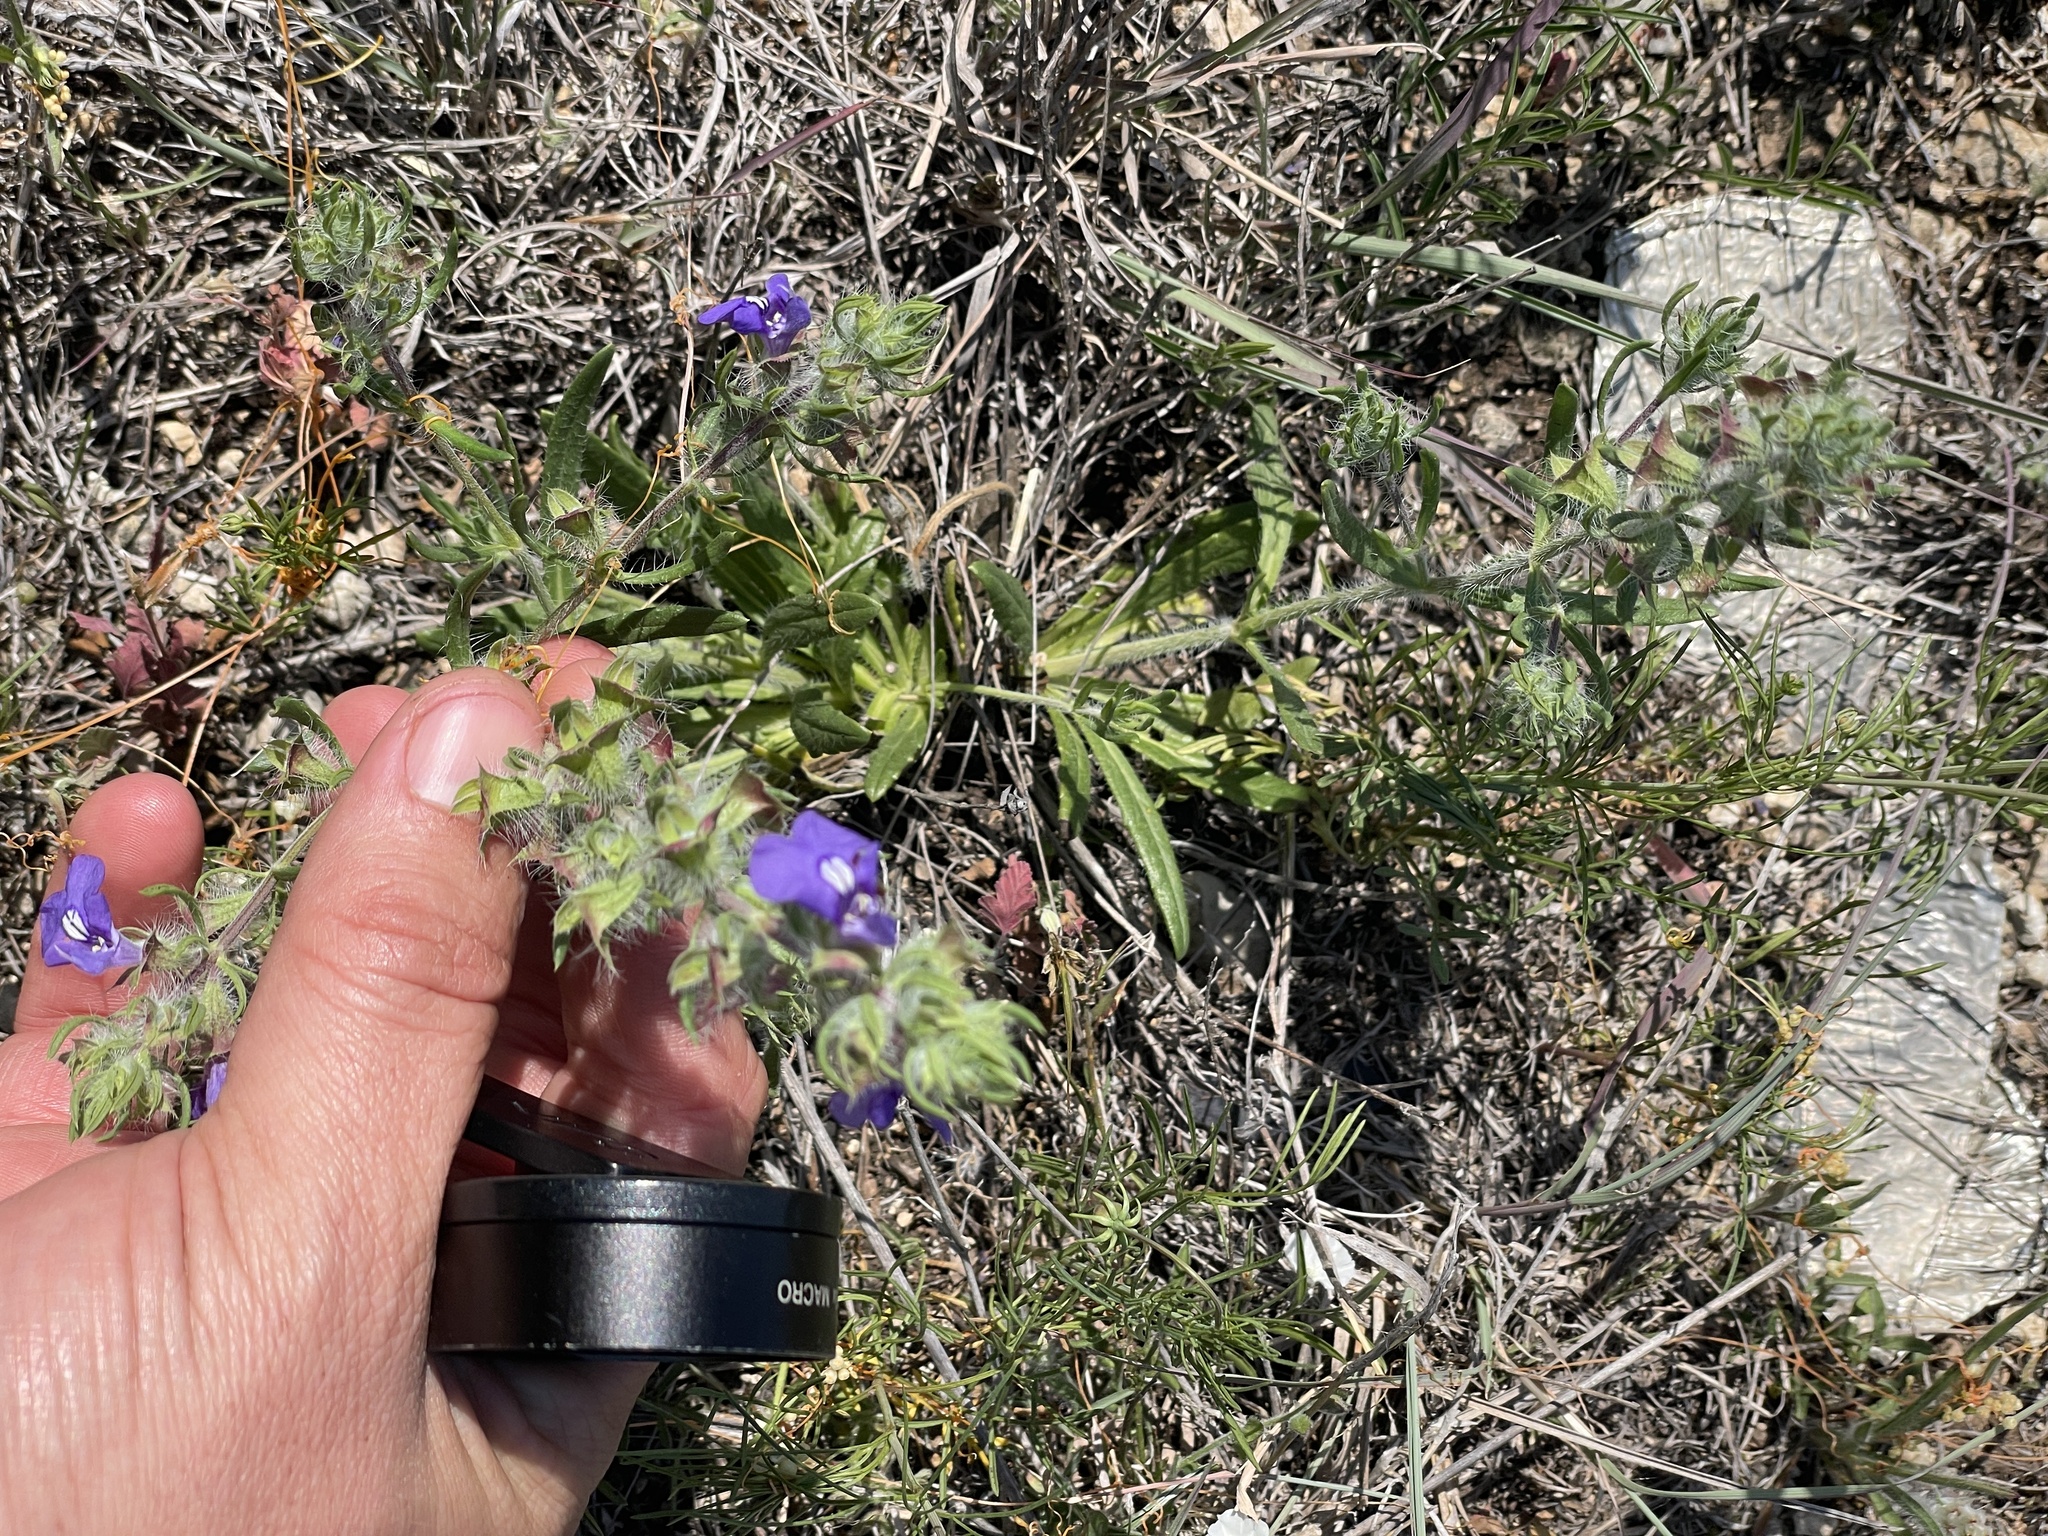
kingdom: Plantae
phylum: Tracheophyta
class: Magnoliopsida
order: Lamiales
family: Lamiaceae
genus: Salvia
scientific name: Salvia texana
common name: Texas sage
